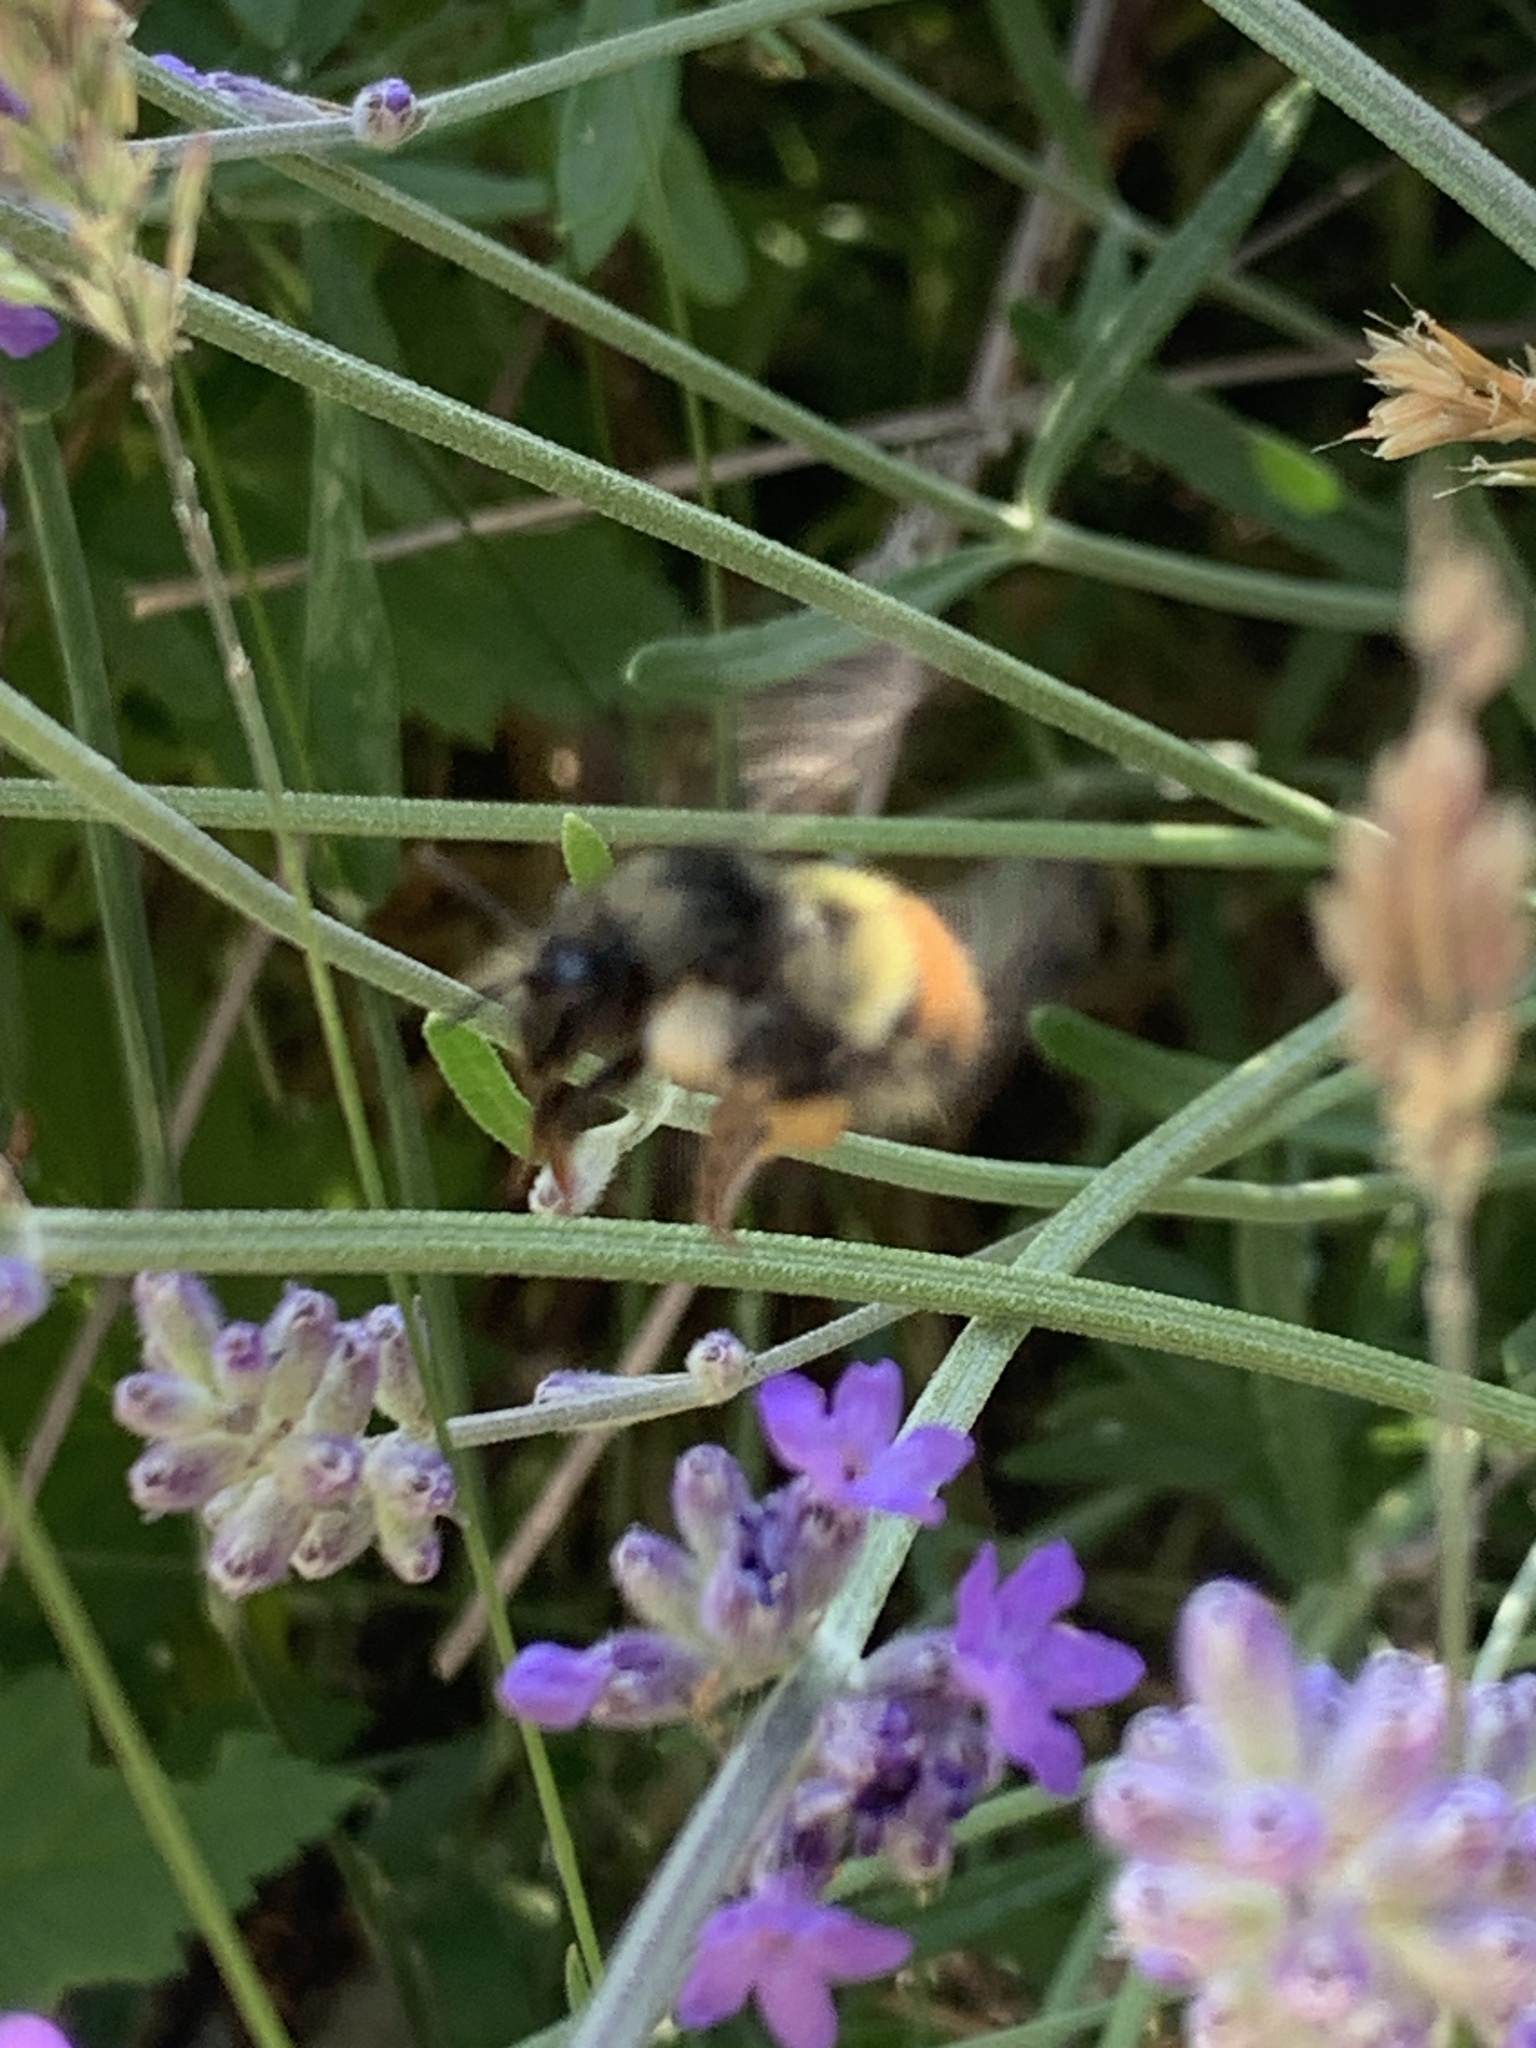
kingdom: Animalia
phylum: Arthropoda
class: Insecta
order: Hymenoptera
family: Apidae
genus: Bombus
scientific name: Bombus flavifrons
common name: Yellow head bumble bee
